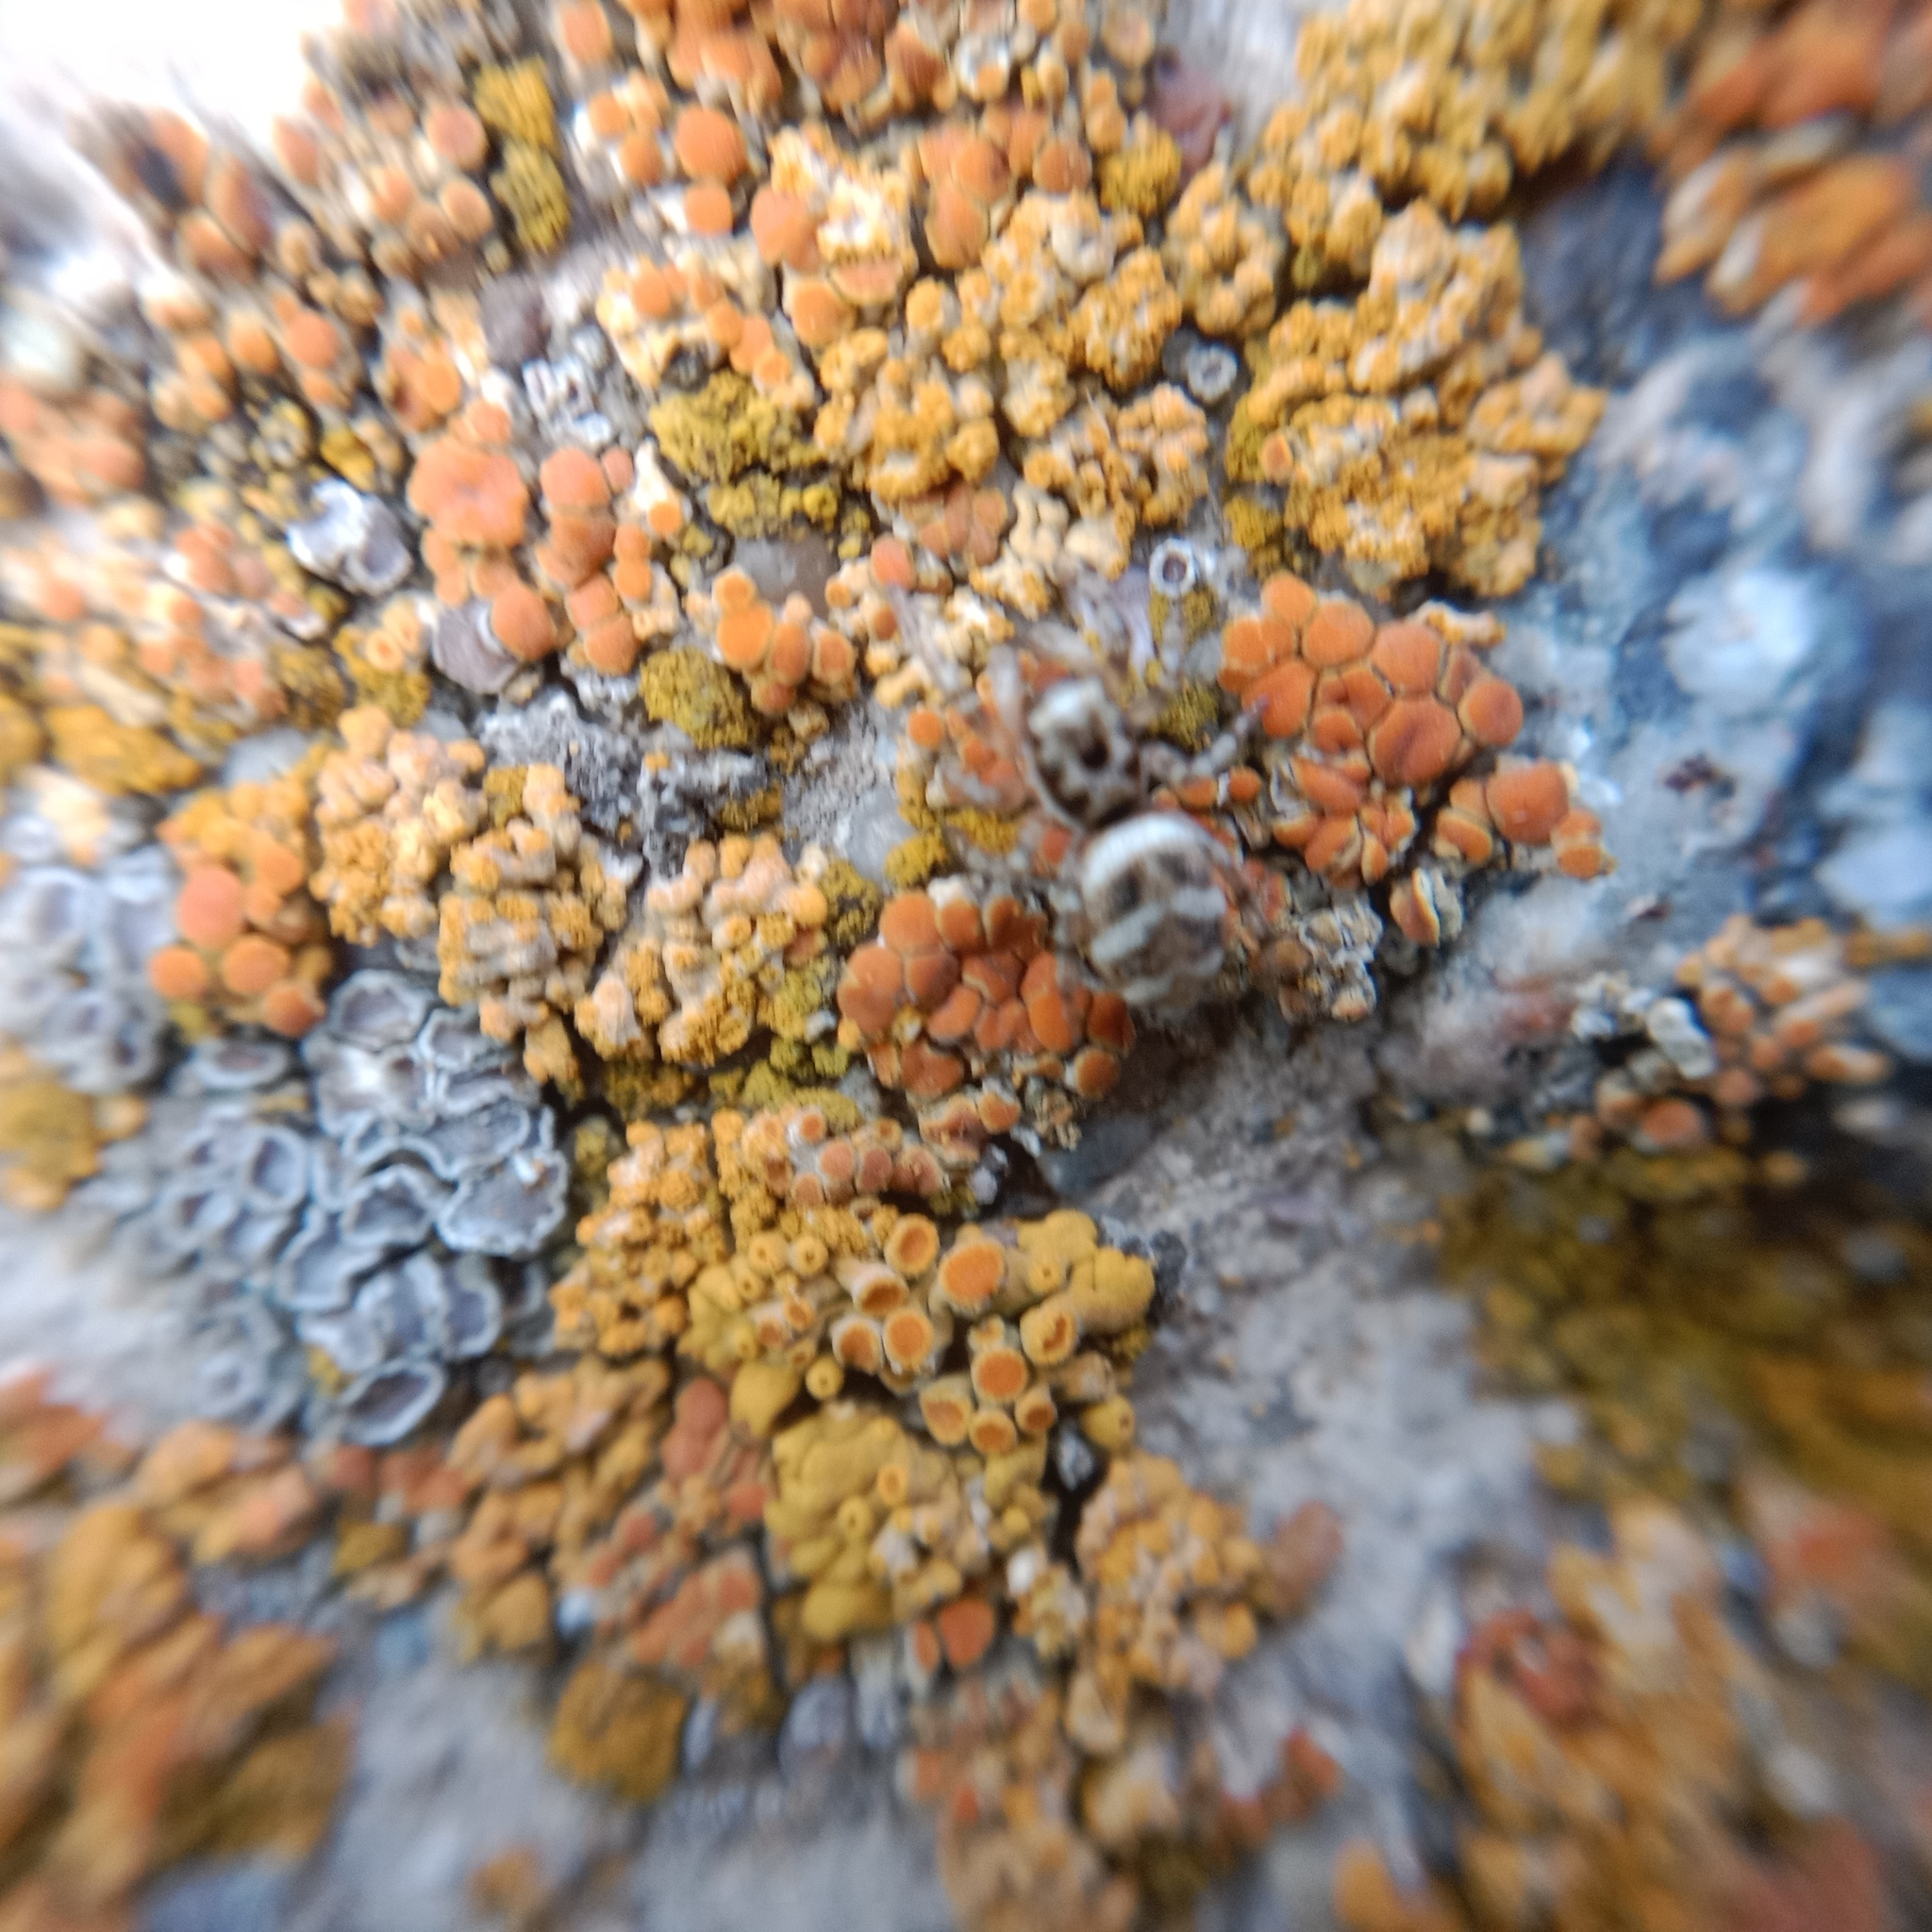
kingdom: Fungi
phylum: Ascomycota
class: Lecanoromycetes
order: Teloschistales
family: Teloschistaceae
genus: Calogaya
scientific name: Calogaya decipiens
